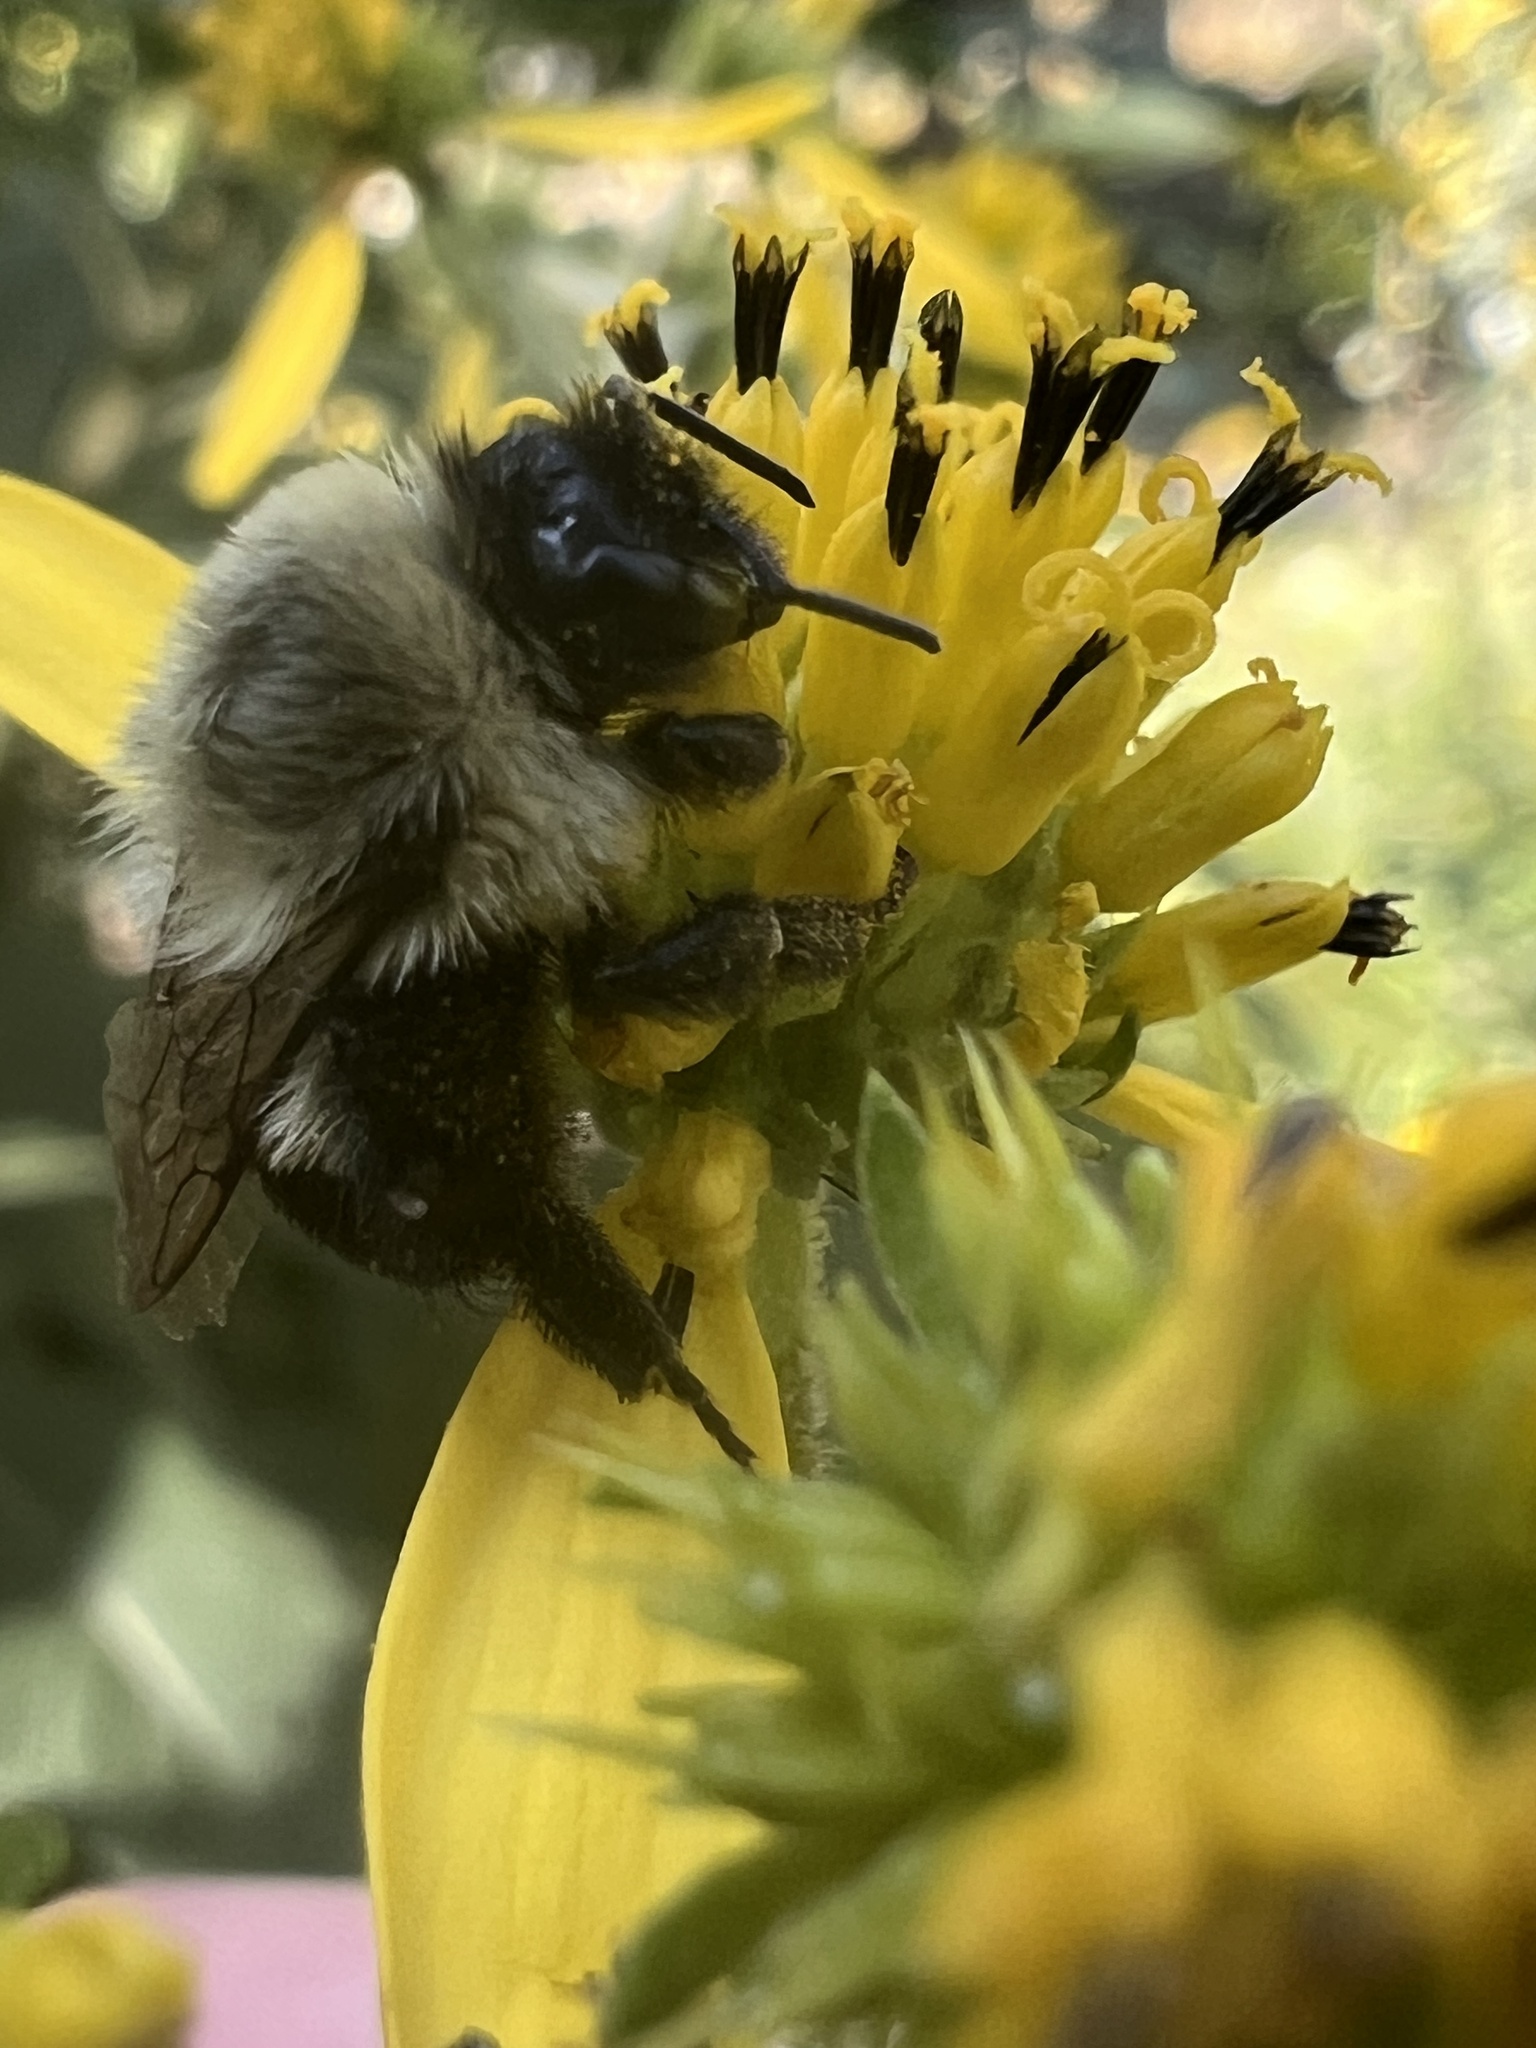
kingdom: Animalia
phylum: Arthropoda
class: Insecta
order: Hymenoptera
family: Apidae
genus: Bombus
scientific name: Bombus impatiens
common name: Common eastern bumble bee
